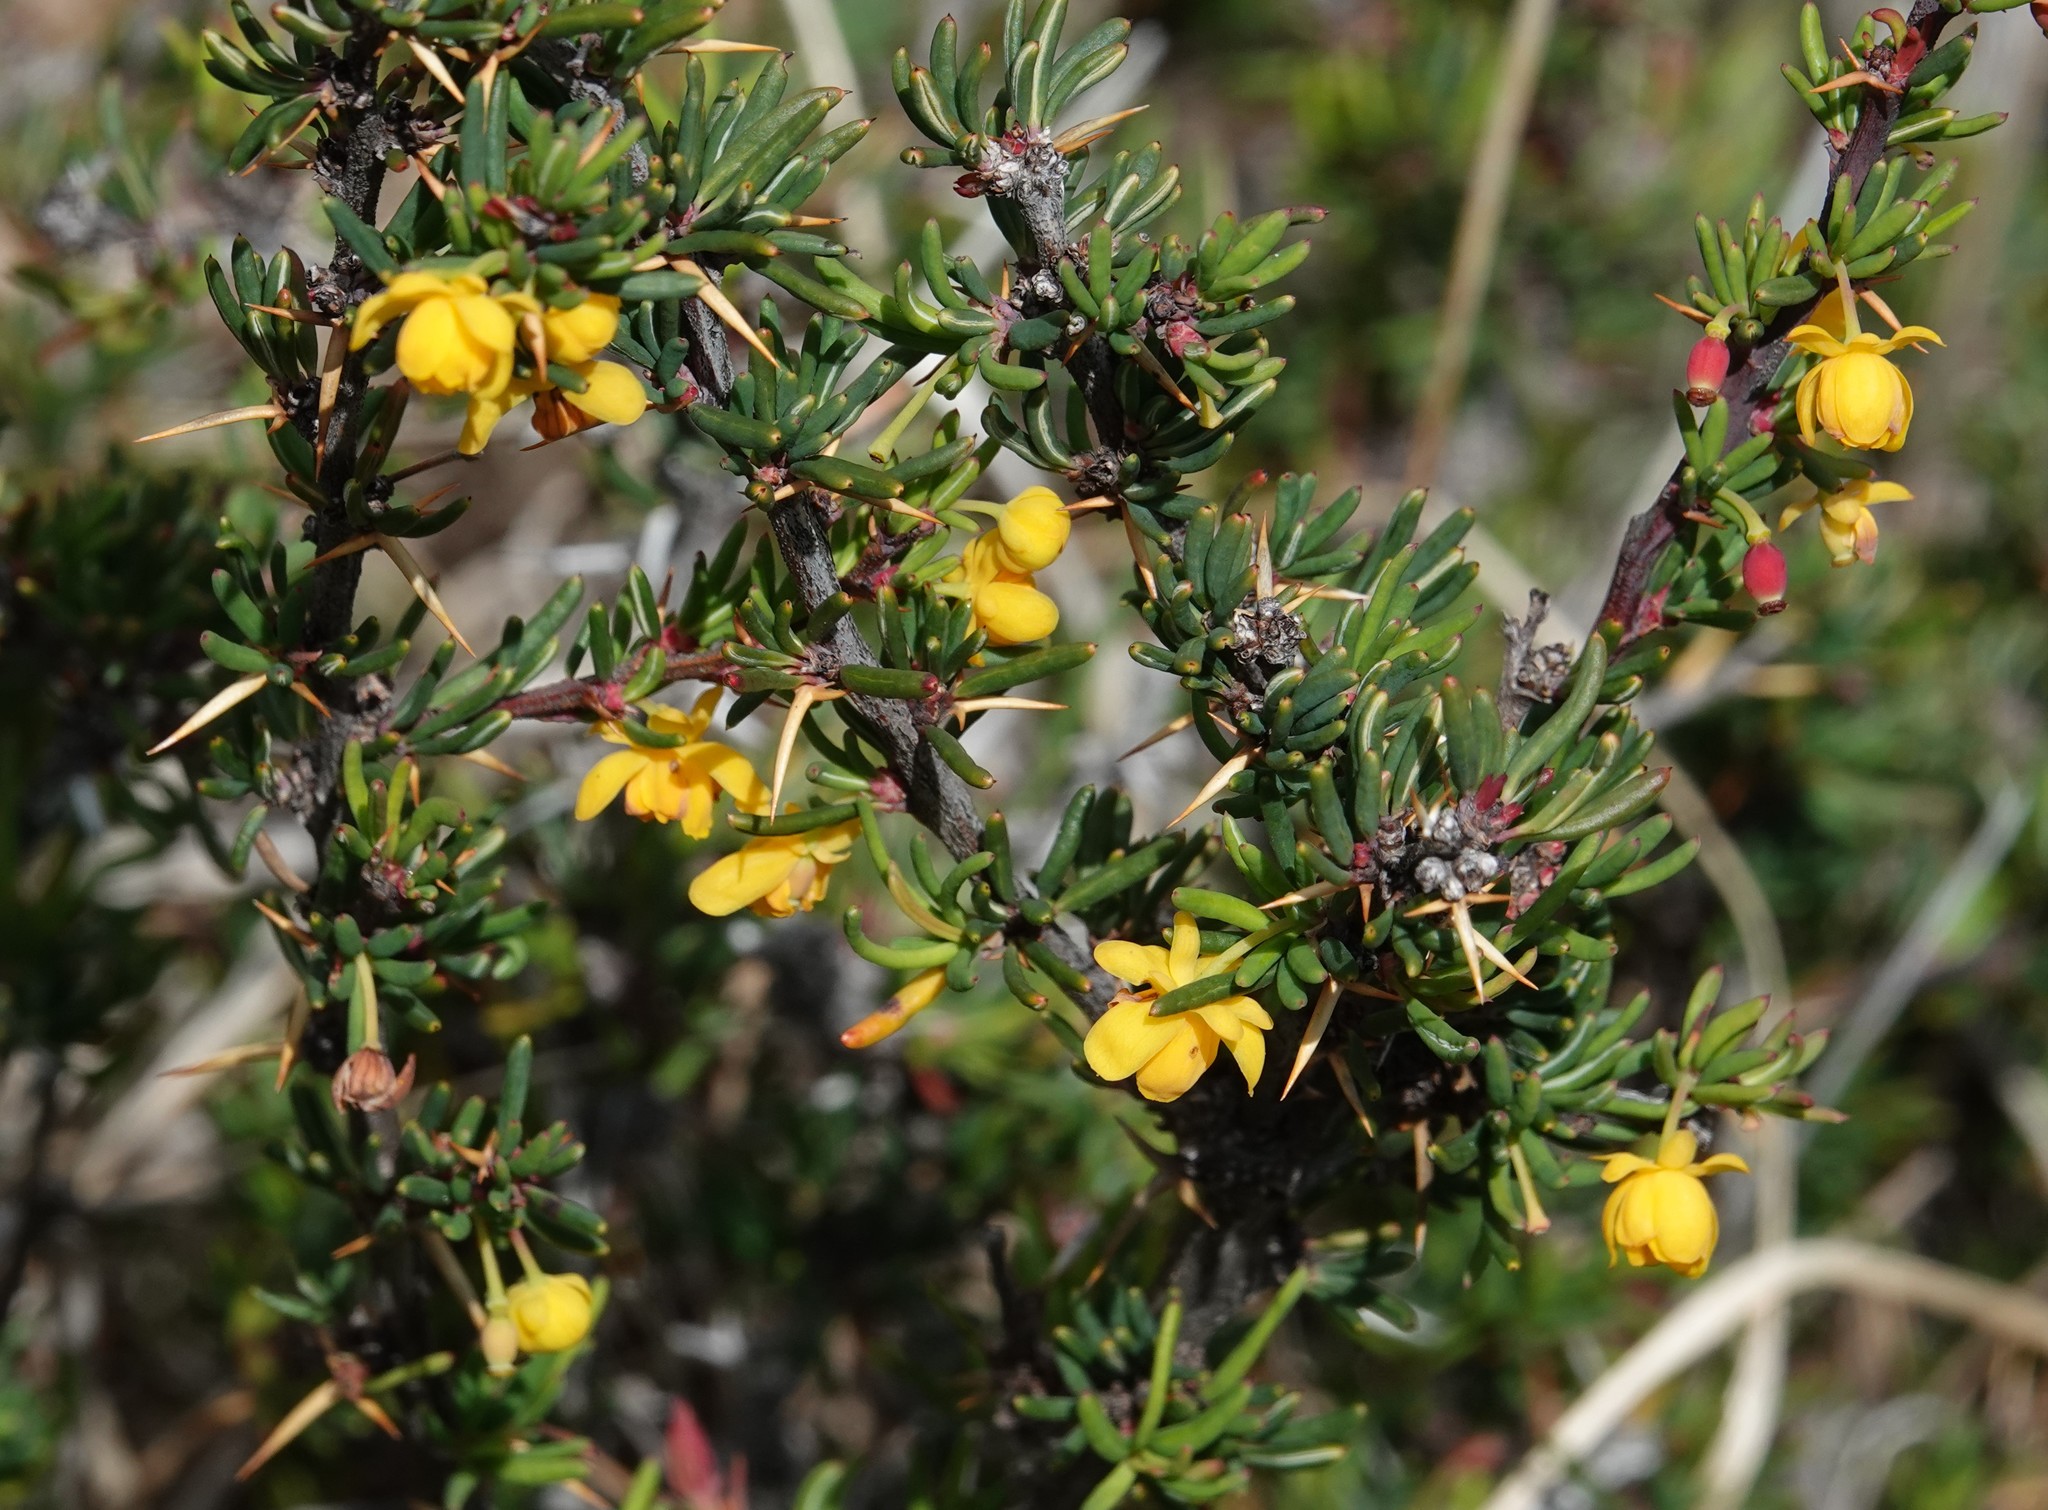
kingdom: Plantae
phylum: Tracheophyta
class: Magnoliopsida
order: Ranunculales
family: Berberidaceae
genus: Berberis
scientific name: Berberis empetrifolia
